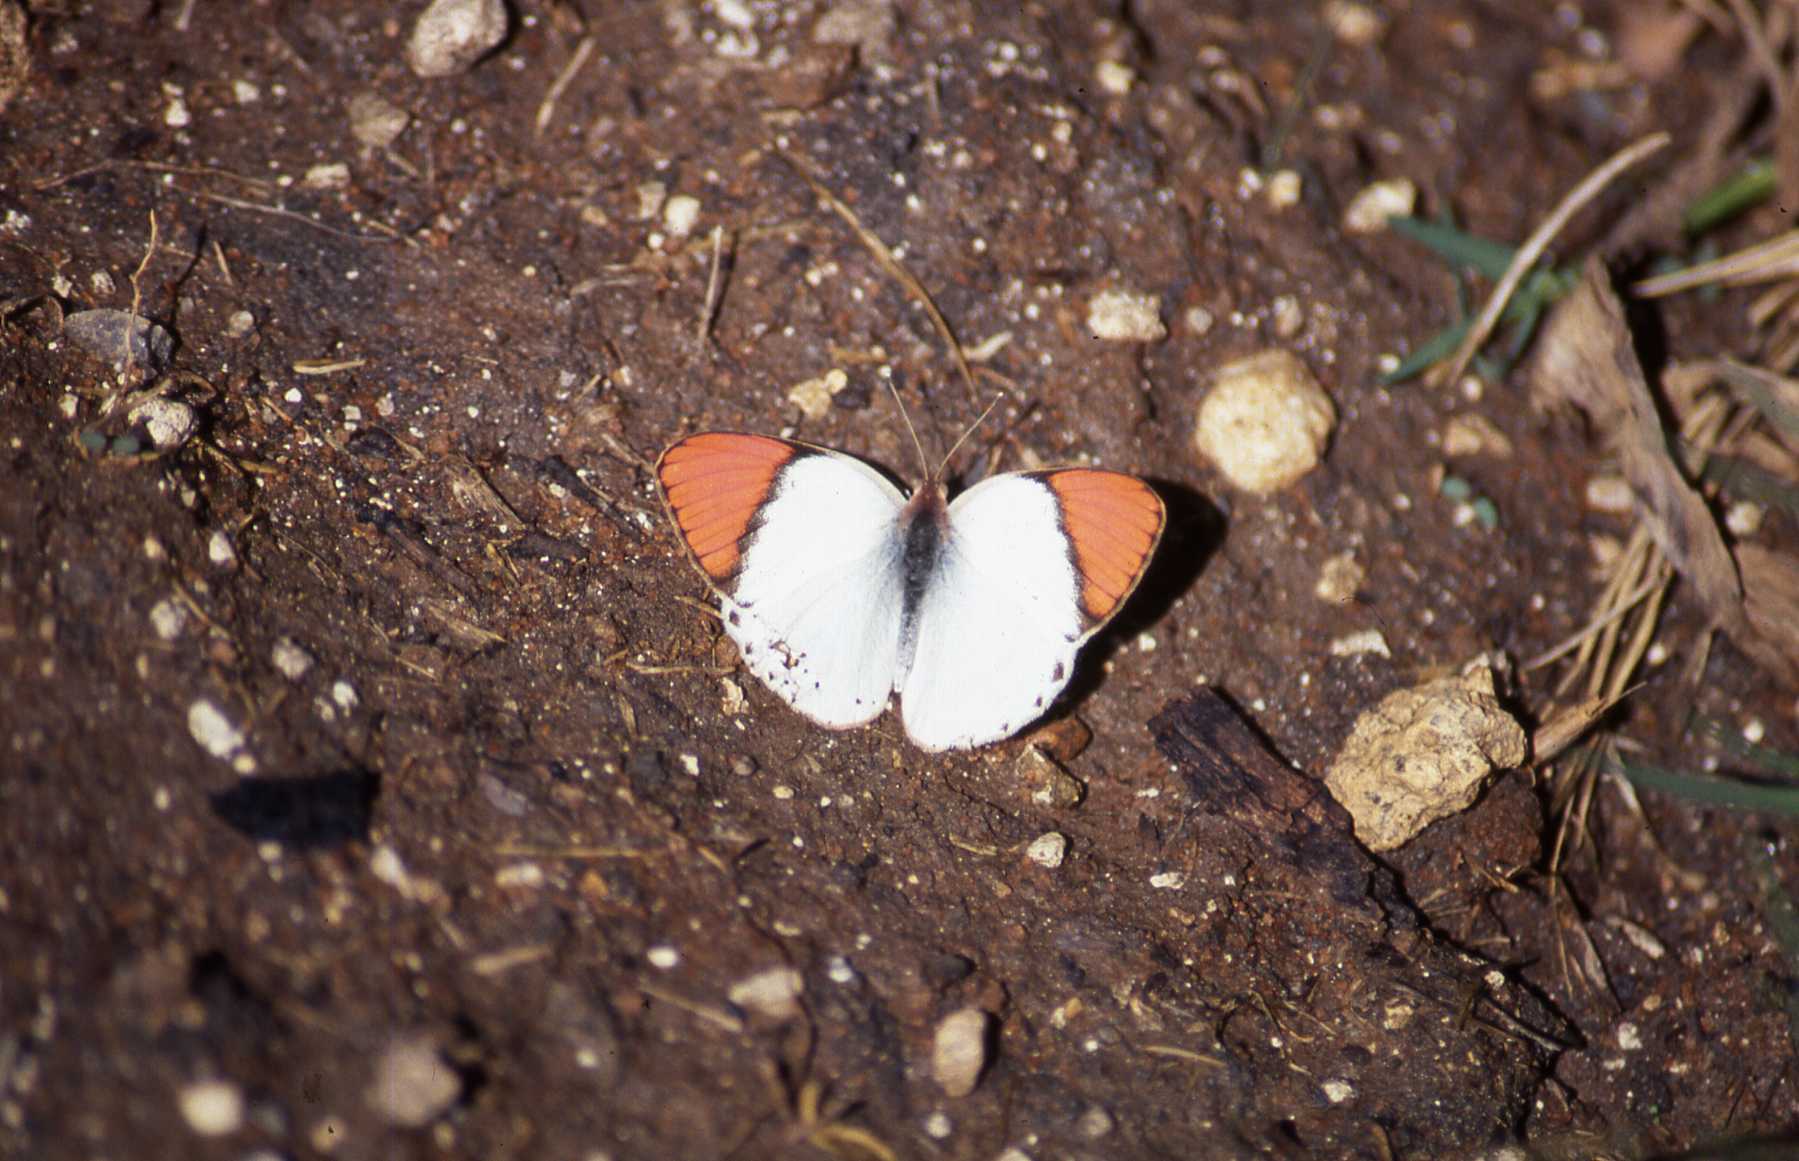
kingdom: Animalia
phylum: Arthropoda
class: Insecta
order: Lepidoptera
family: Pieridae
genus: Colotis
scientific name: Colotis annae
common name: Scarlet tip
